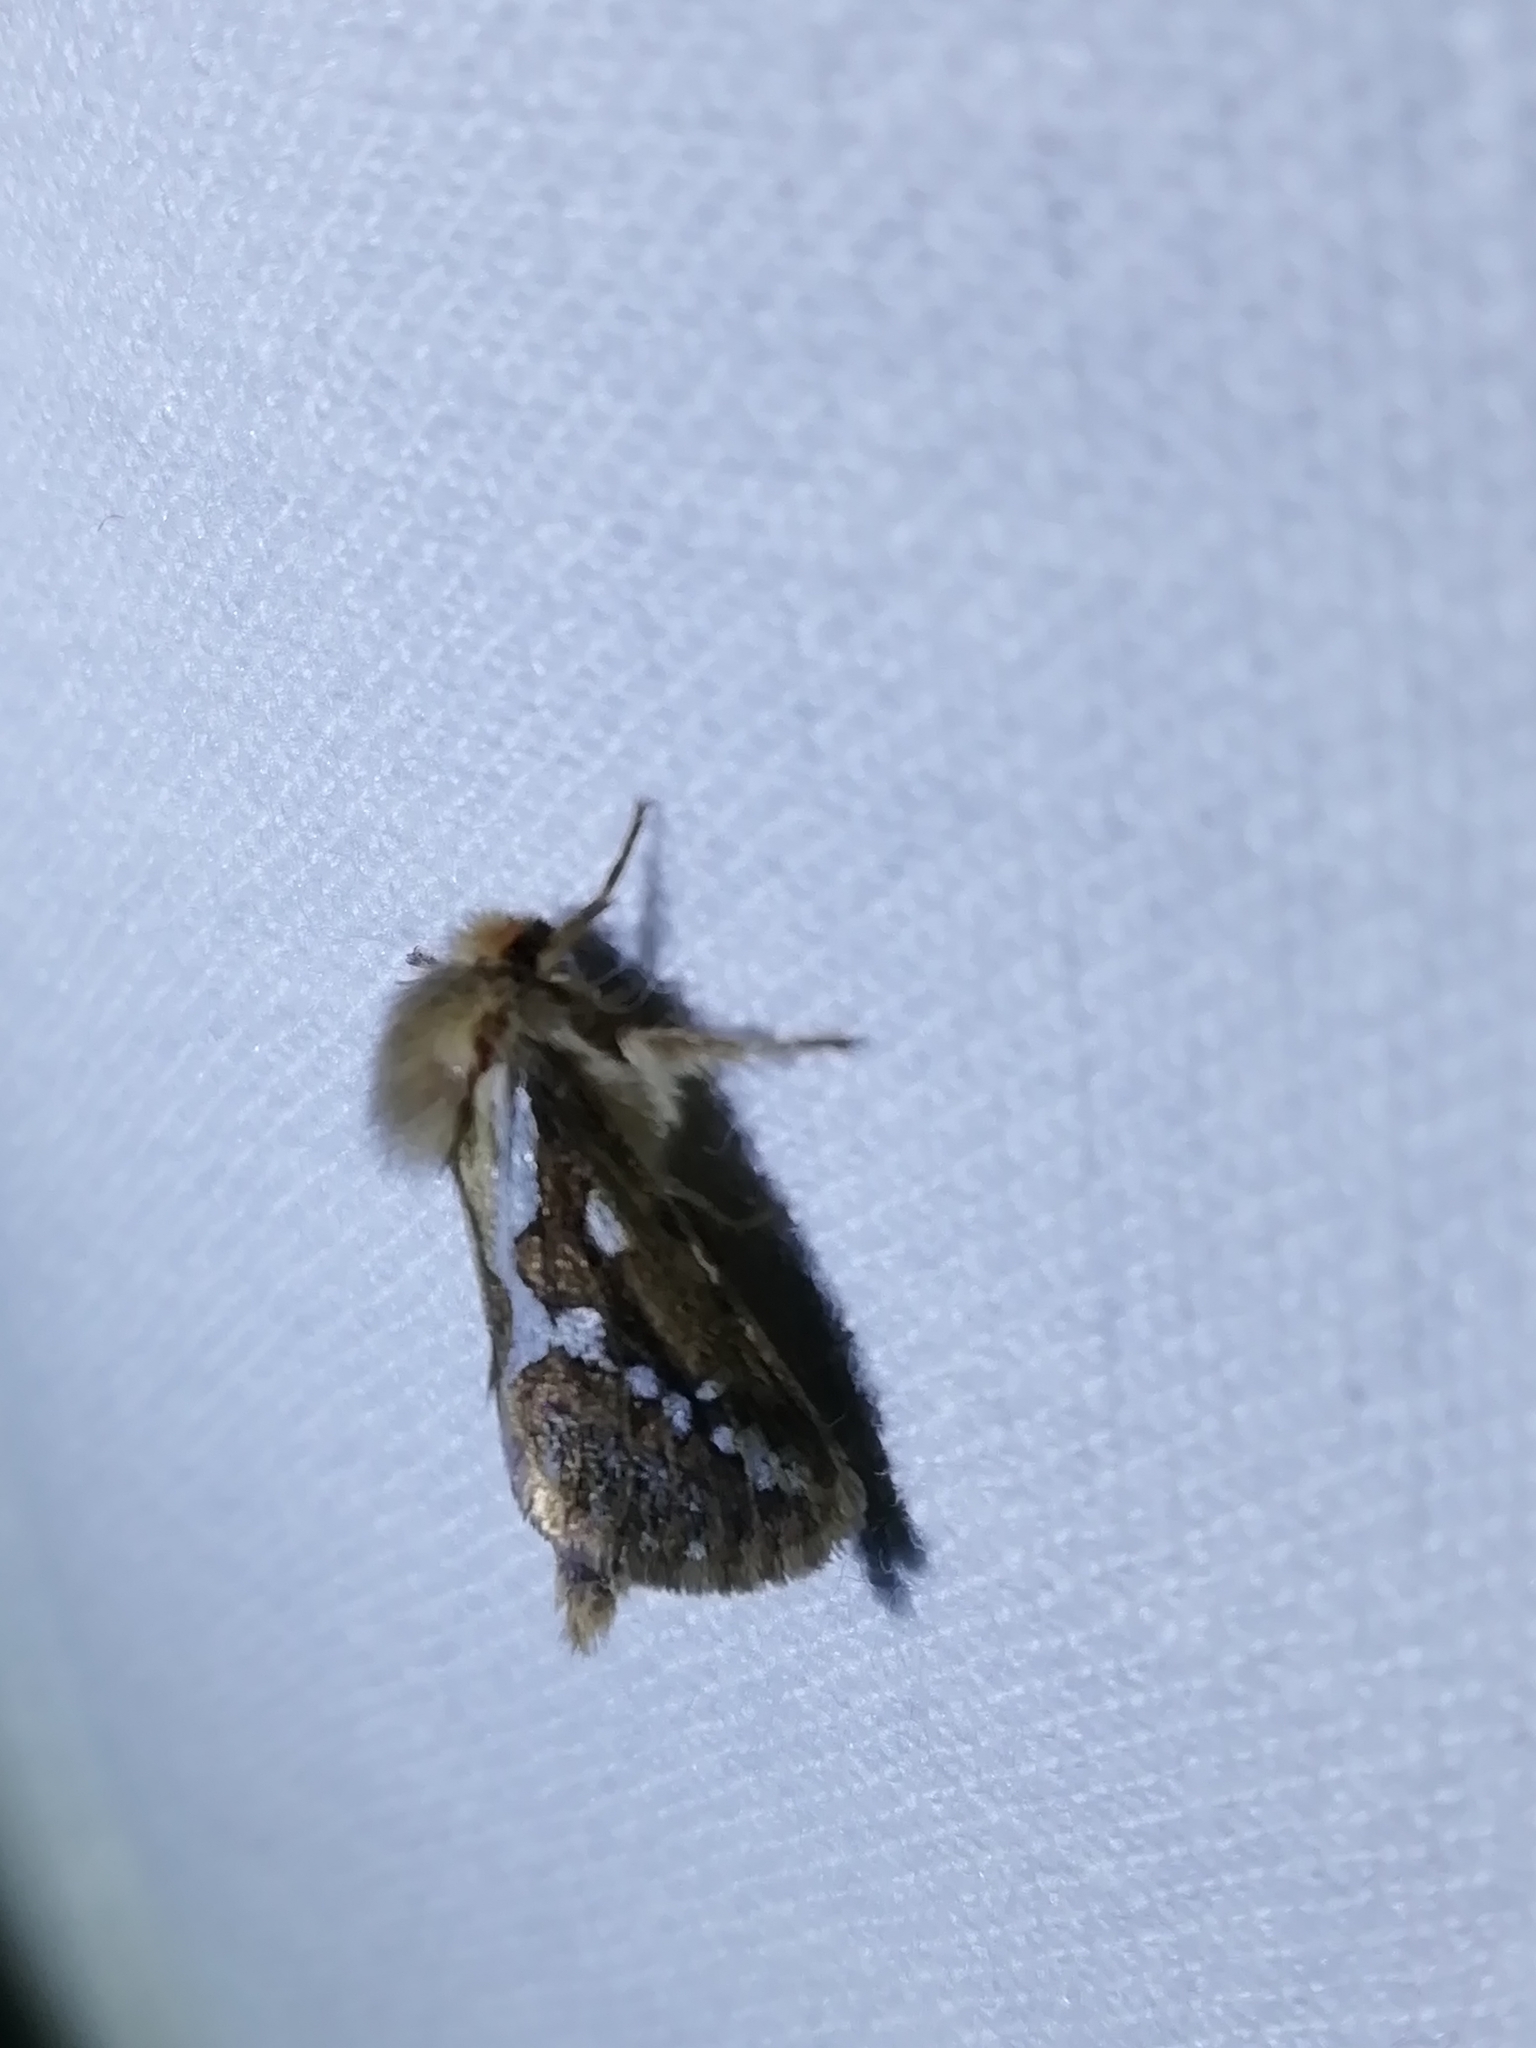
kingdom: Animalia
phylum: Arthropoda
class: Insecta
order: Lepidoptera
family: Hepialidae
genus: Korscheltellus
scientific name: Korscheltellus lupulina
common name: Common swift
